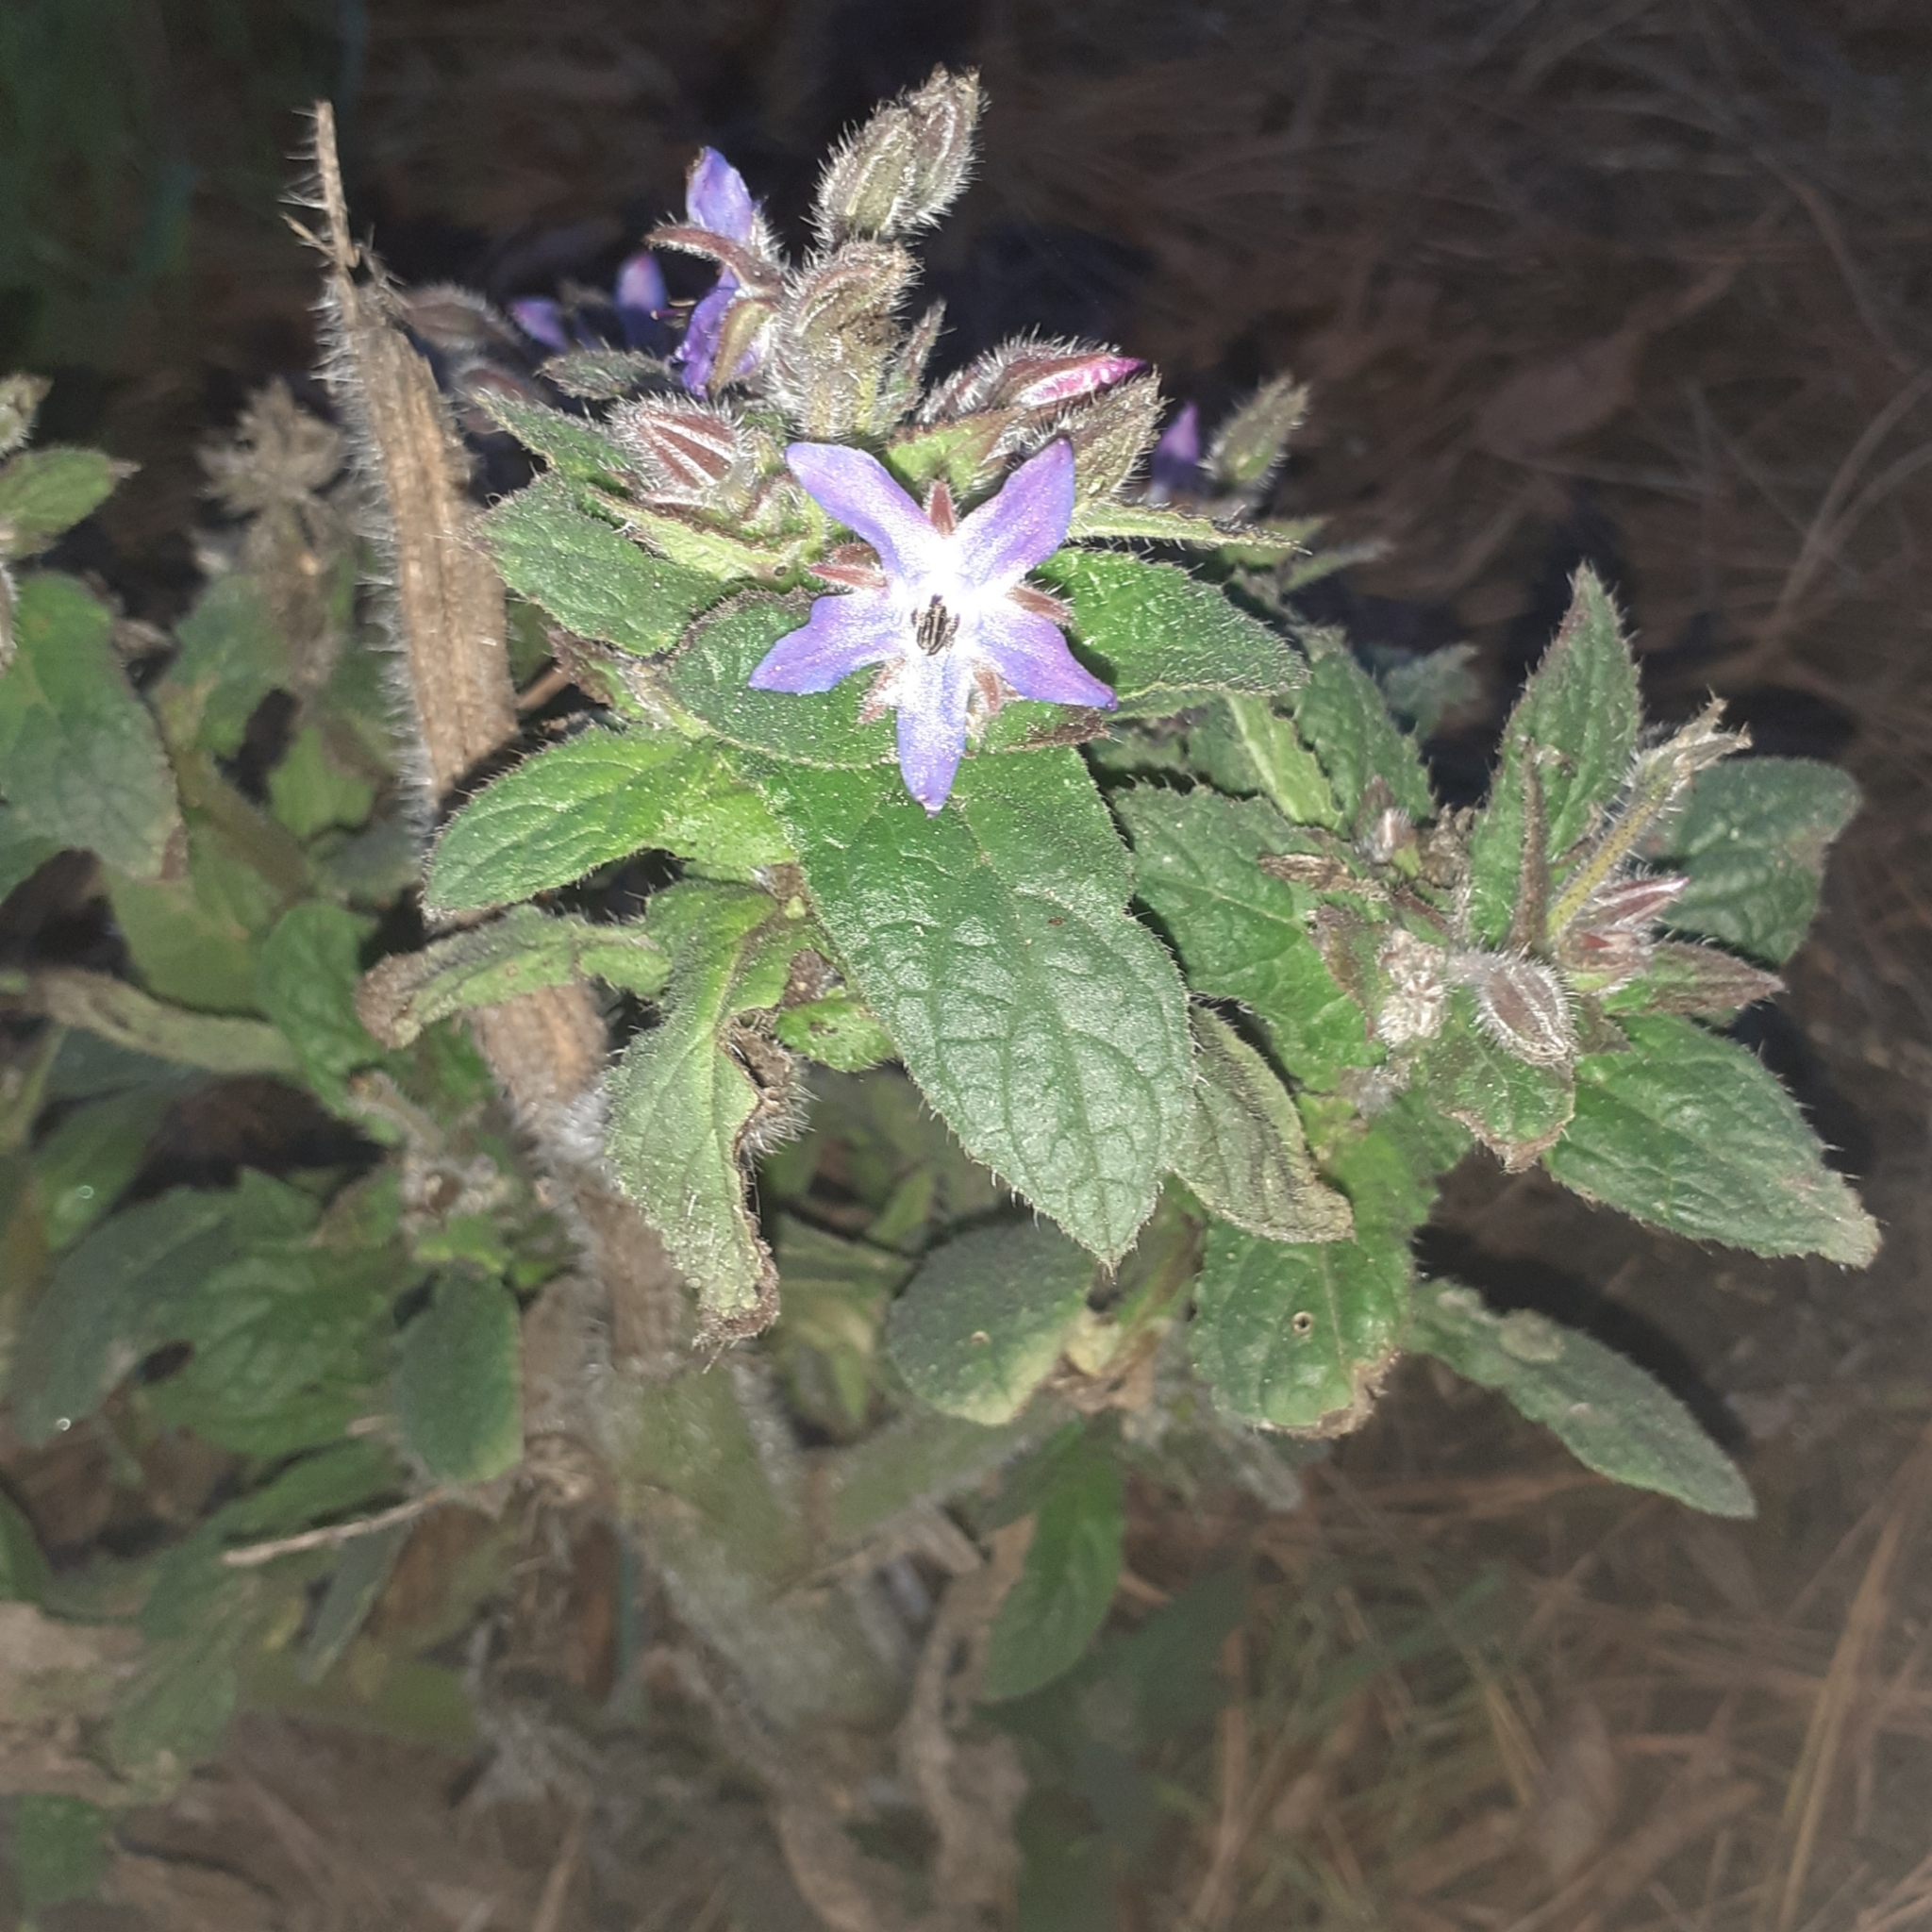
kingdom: Plantae
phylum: Tracheophyta
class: Magnoliopsida
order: Boraginales
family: Boraginaceae
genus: Borago
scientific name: Borago officinalis
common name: Borage
